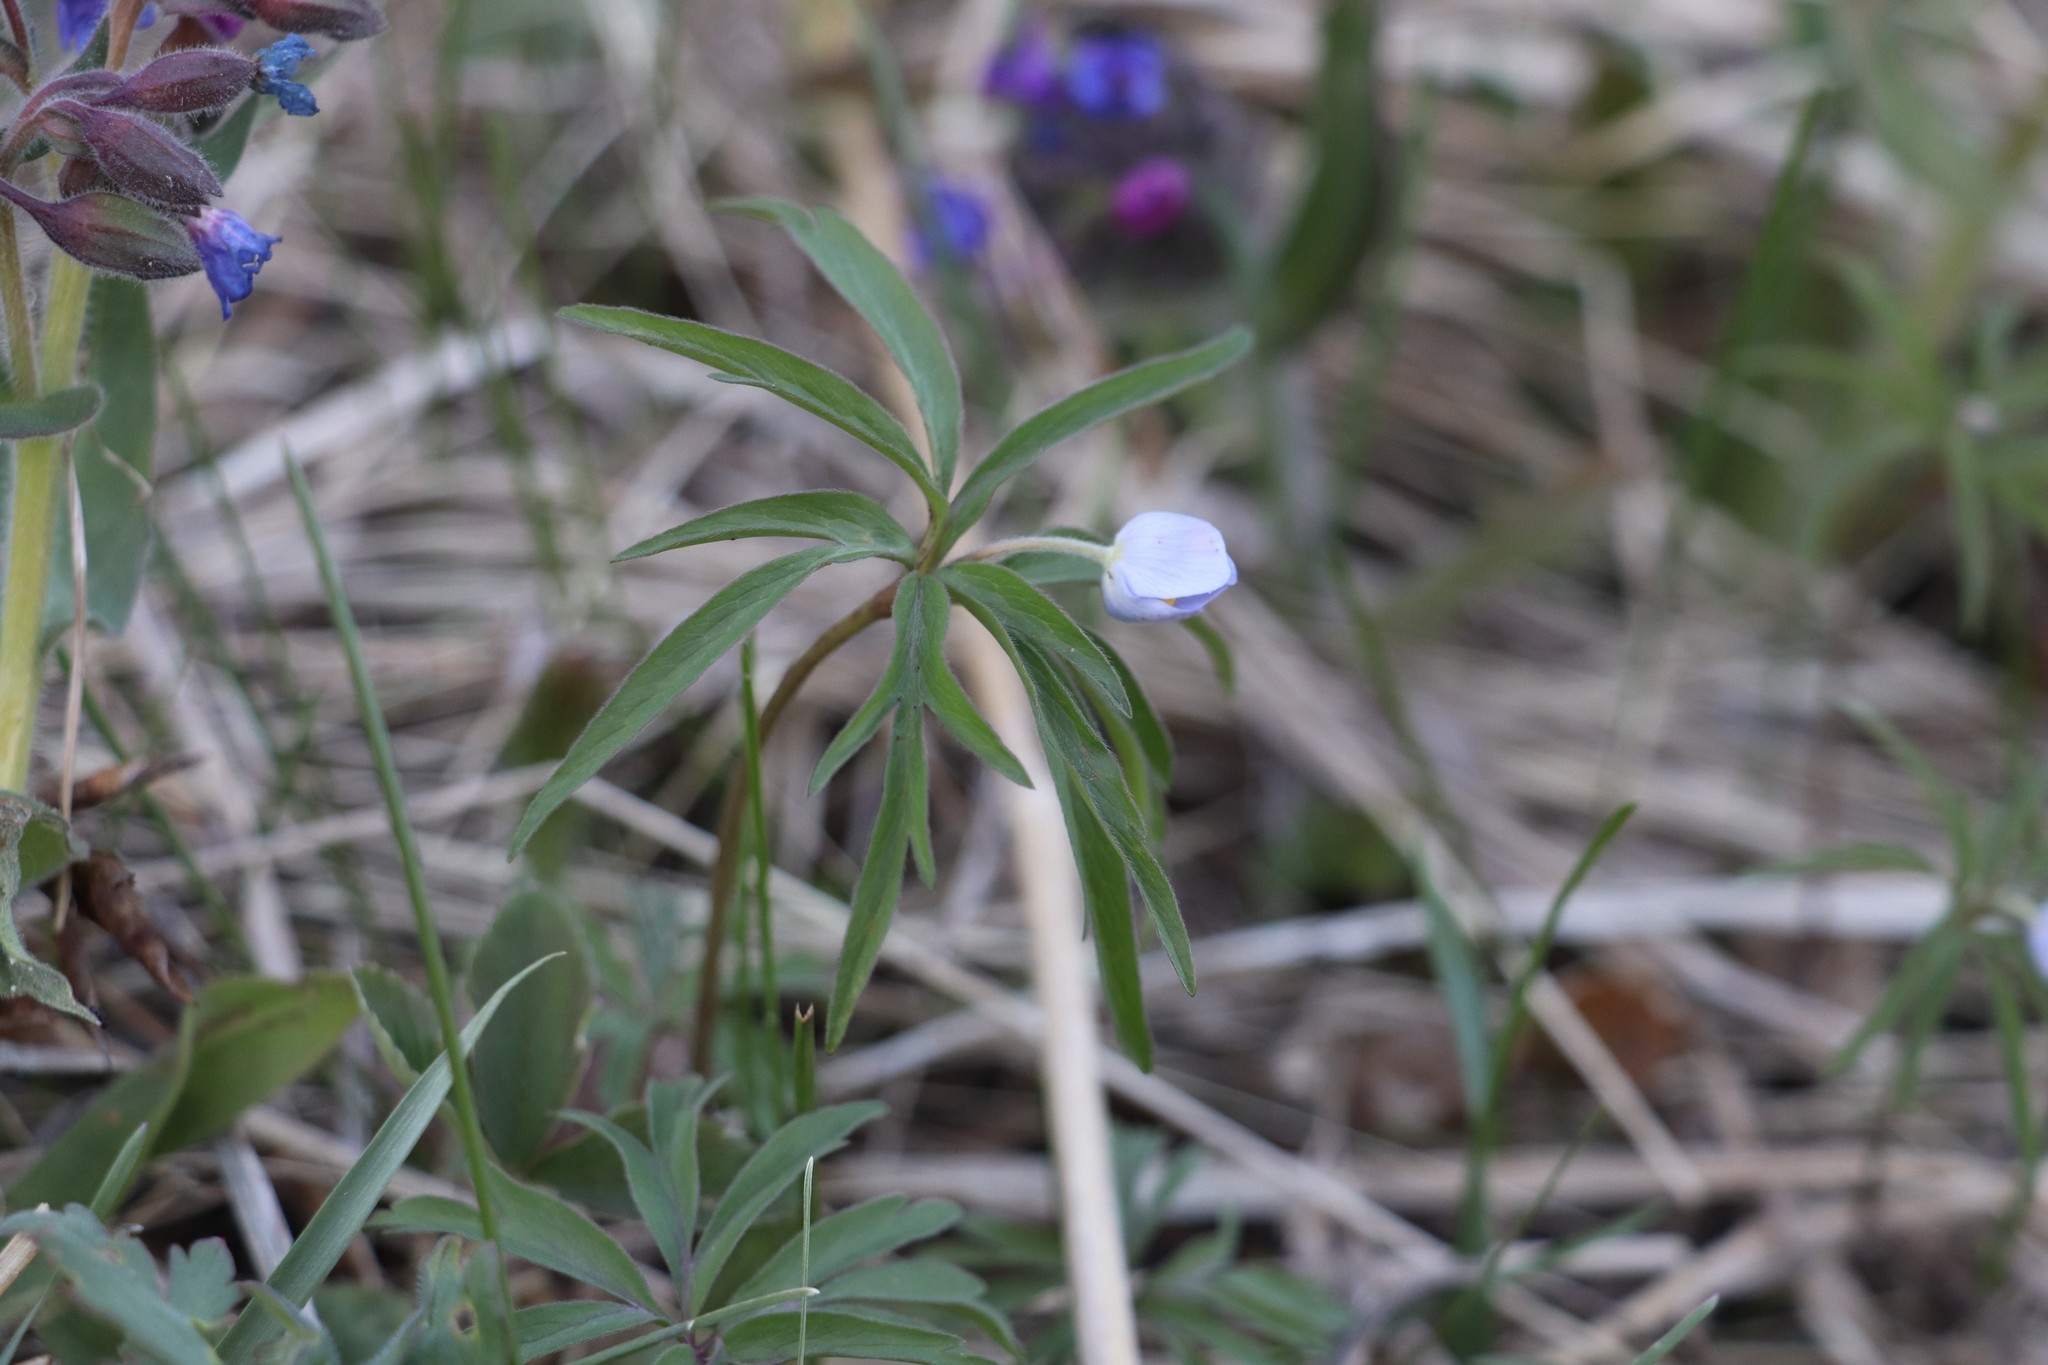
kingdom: Plantae
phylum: Tracheophyta
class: Magnoliopsida
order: Ranunculales
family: Ranunculaceae
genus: Anemone
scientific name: Anemone caerulea
